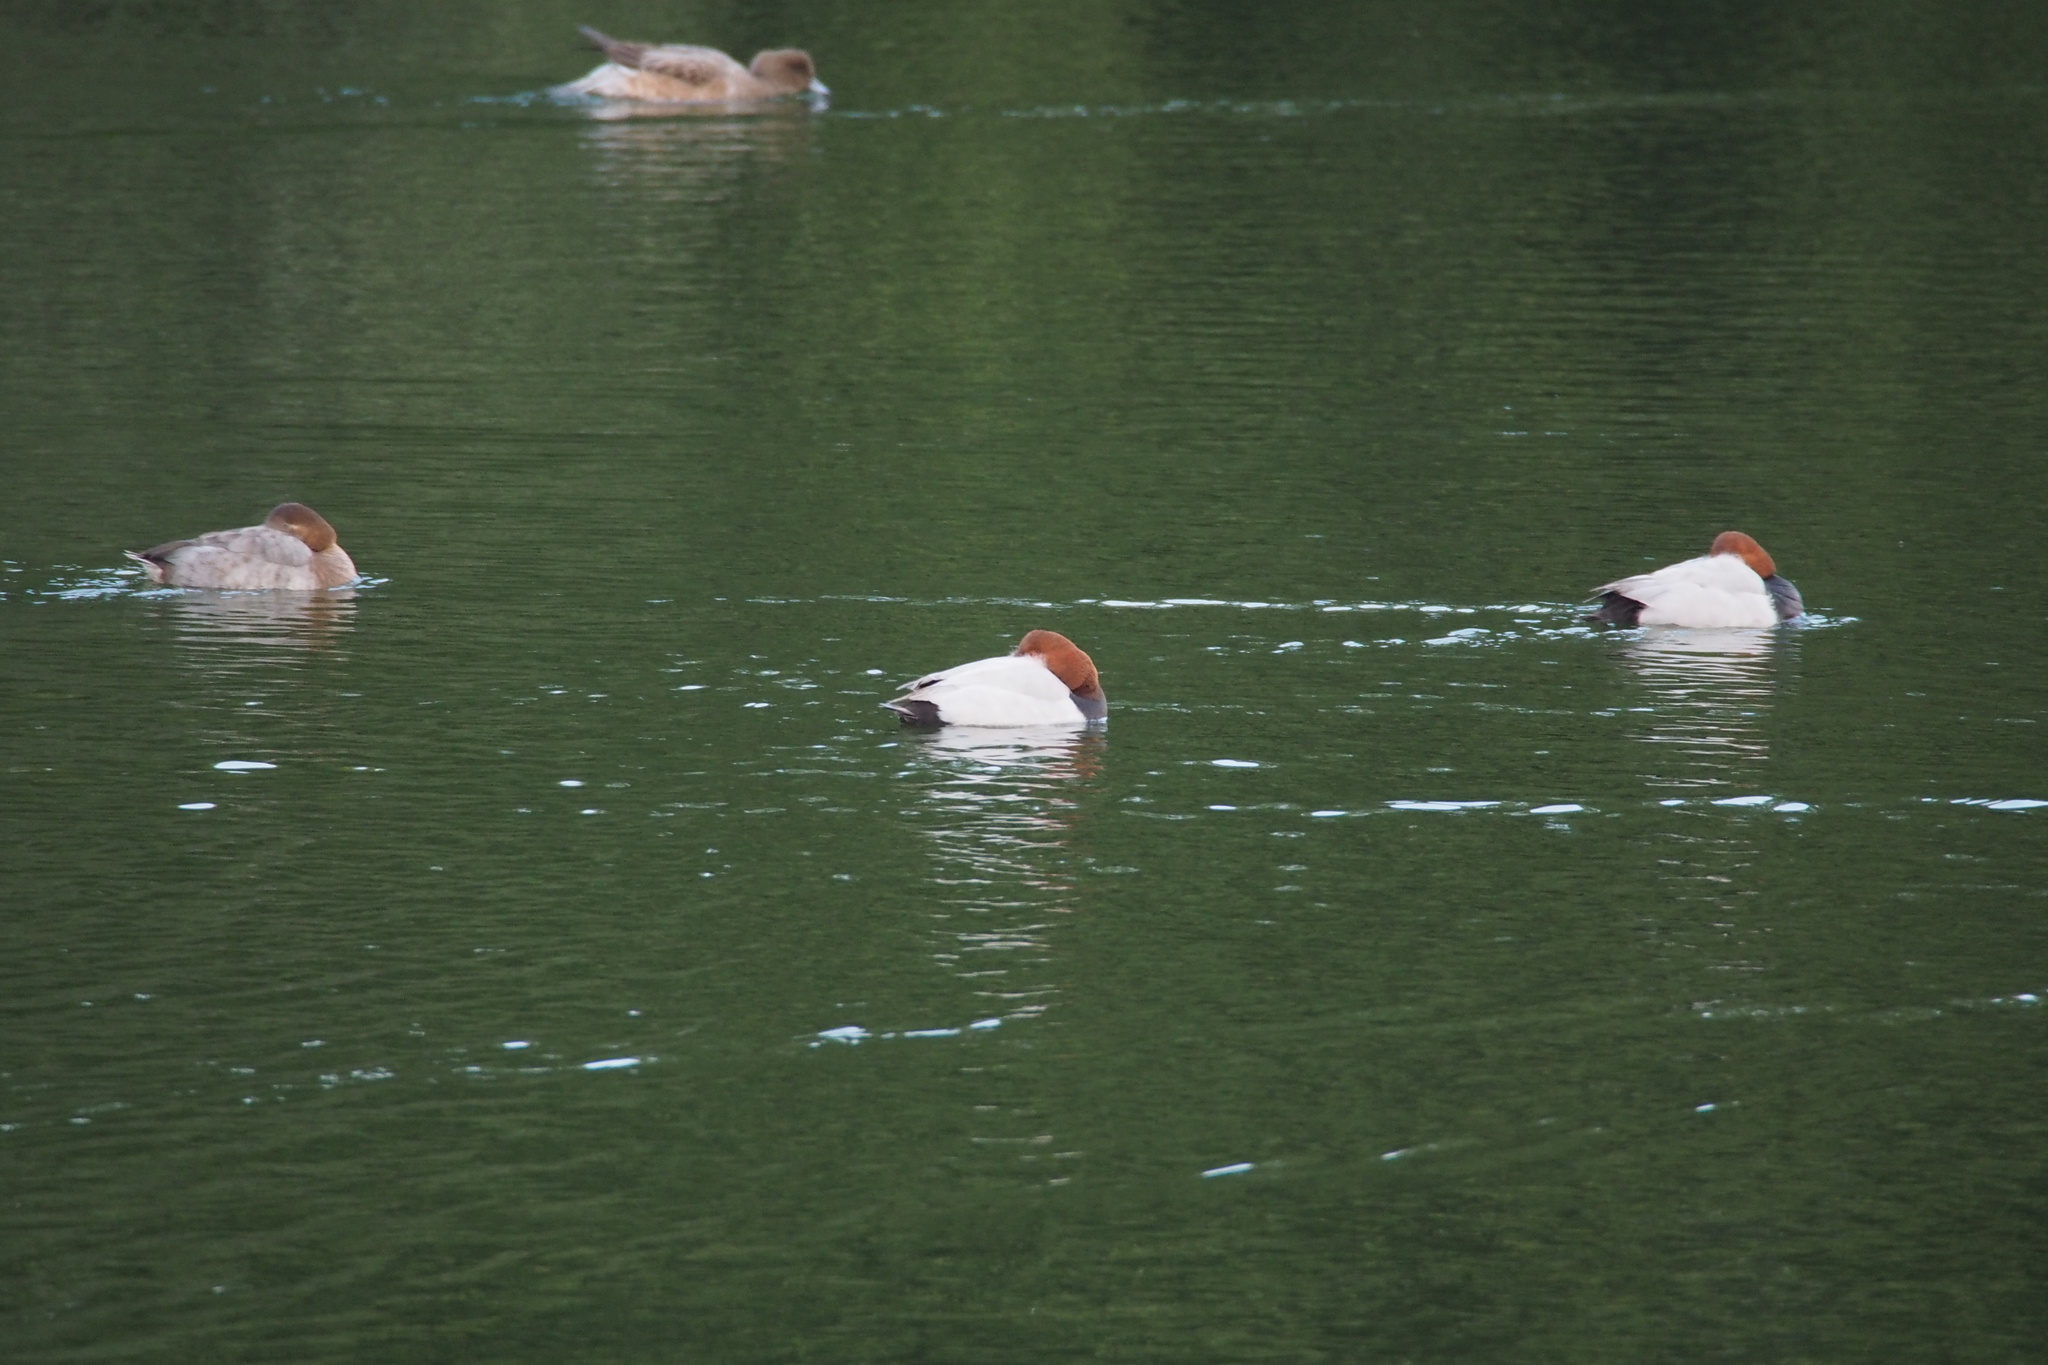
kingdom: Animalia
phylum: Chordata
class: Aves
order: Anseriformes
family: Anatidae
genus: Aythya
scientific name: Aythya ferina
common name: Common pochard
